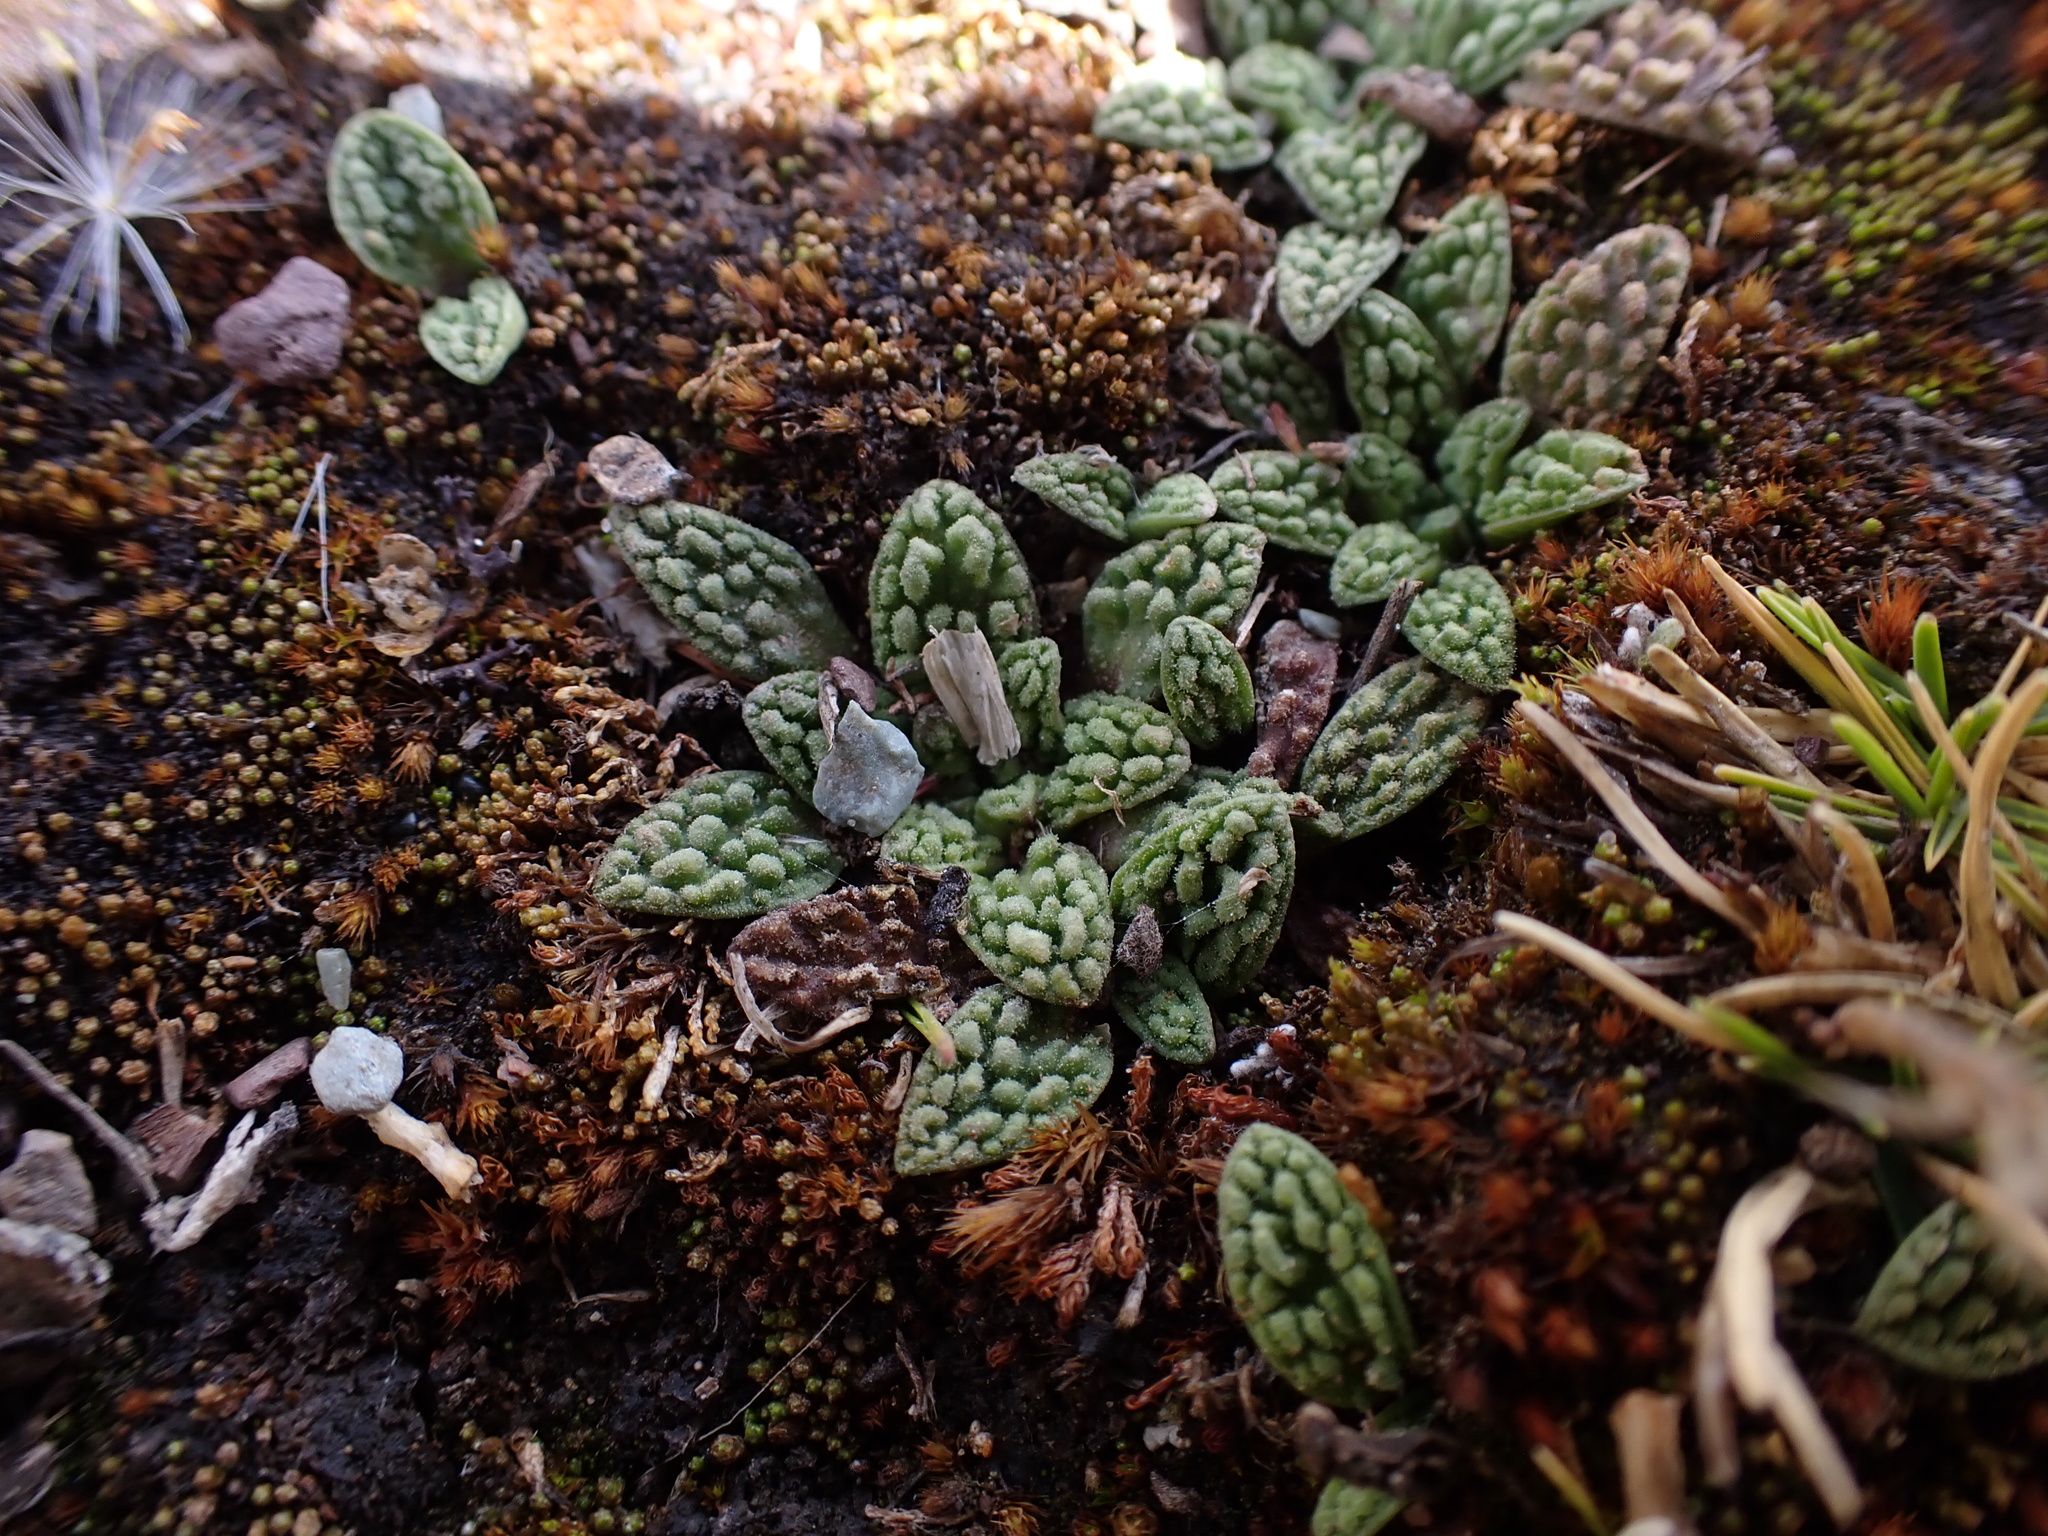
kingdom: Plantae
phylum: Tracheophyta
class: Magnoliopsida
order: Dipsacales
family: Caprifoliaceae
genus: Valeriana
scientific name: Valeriana wandae
